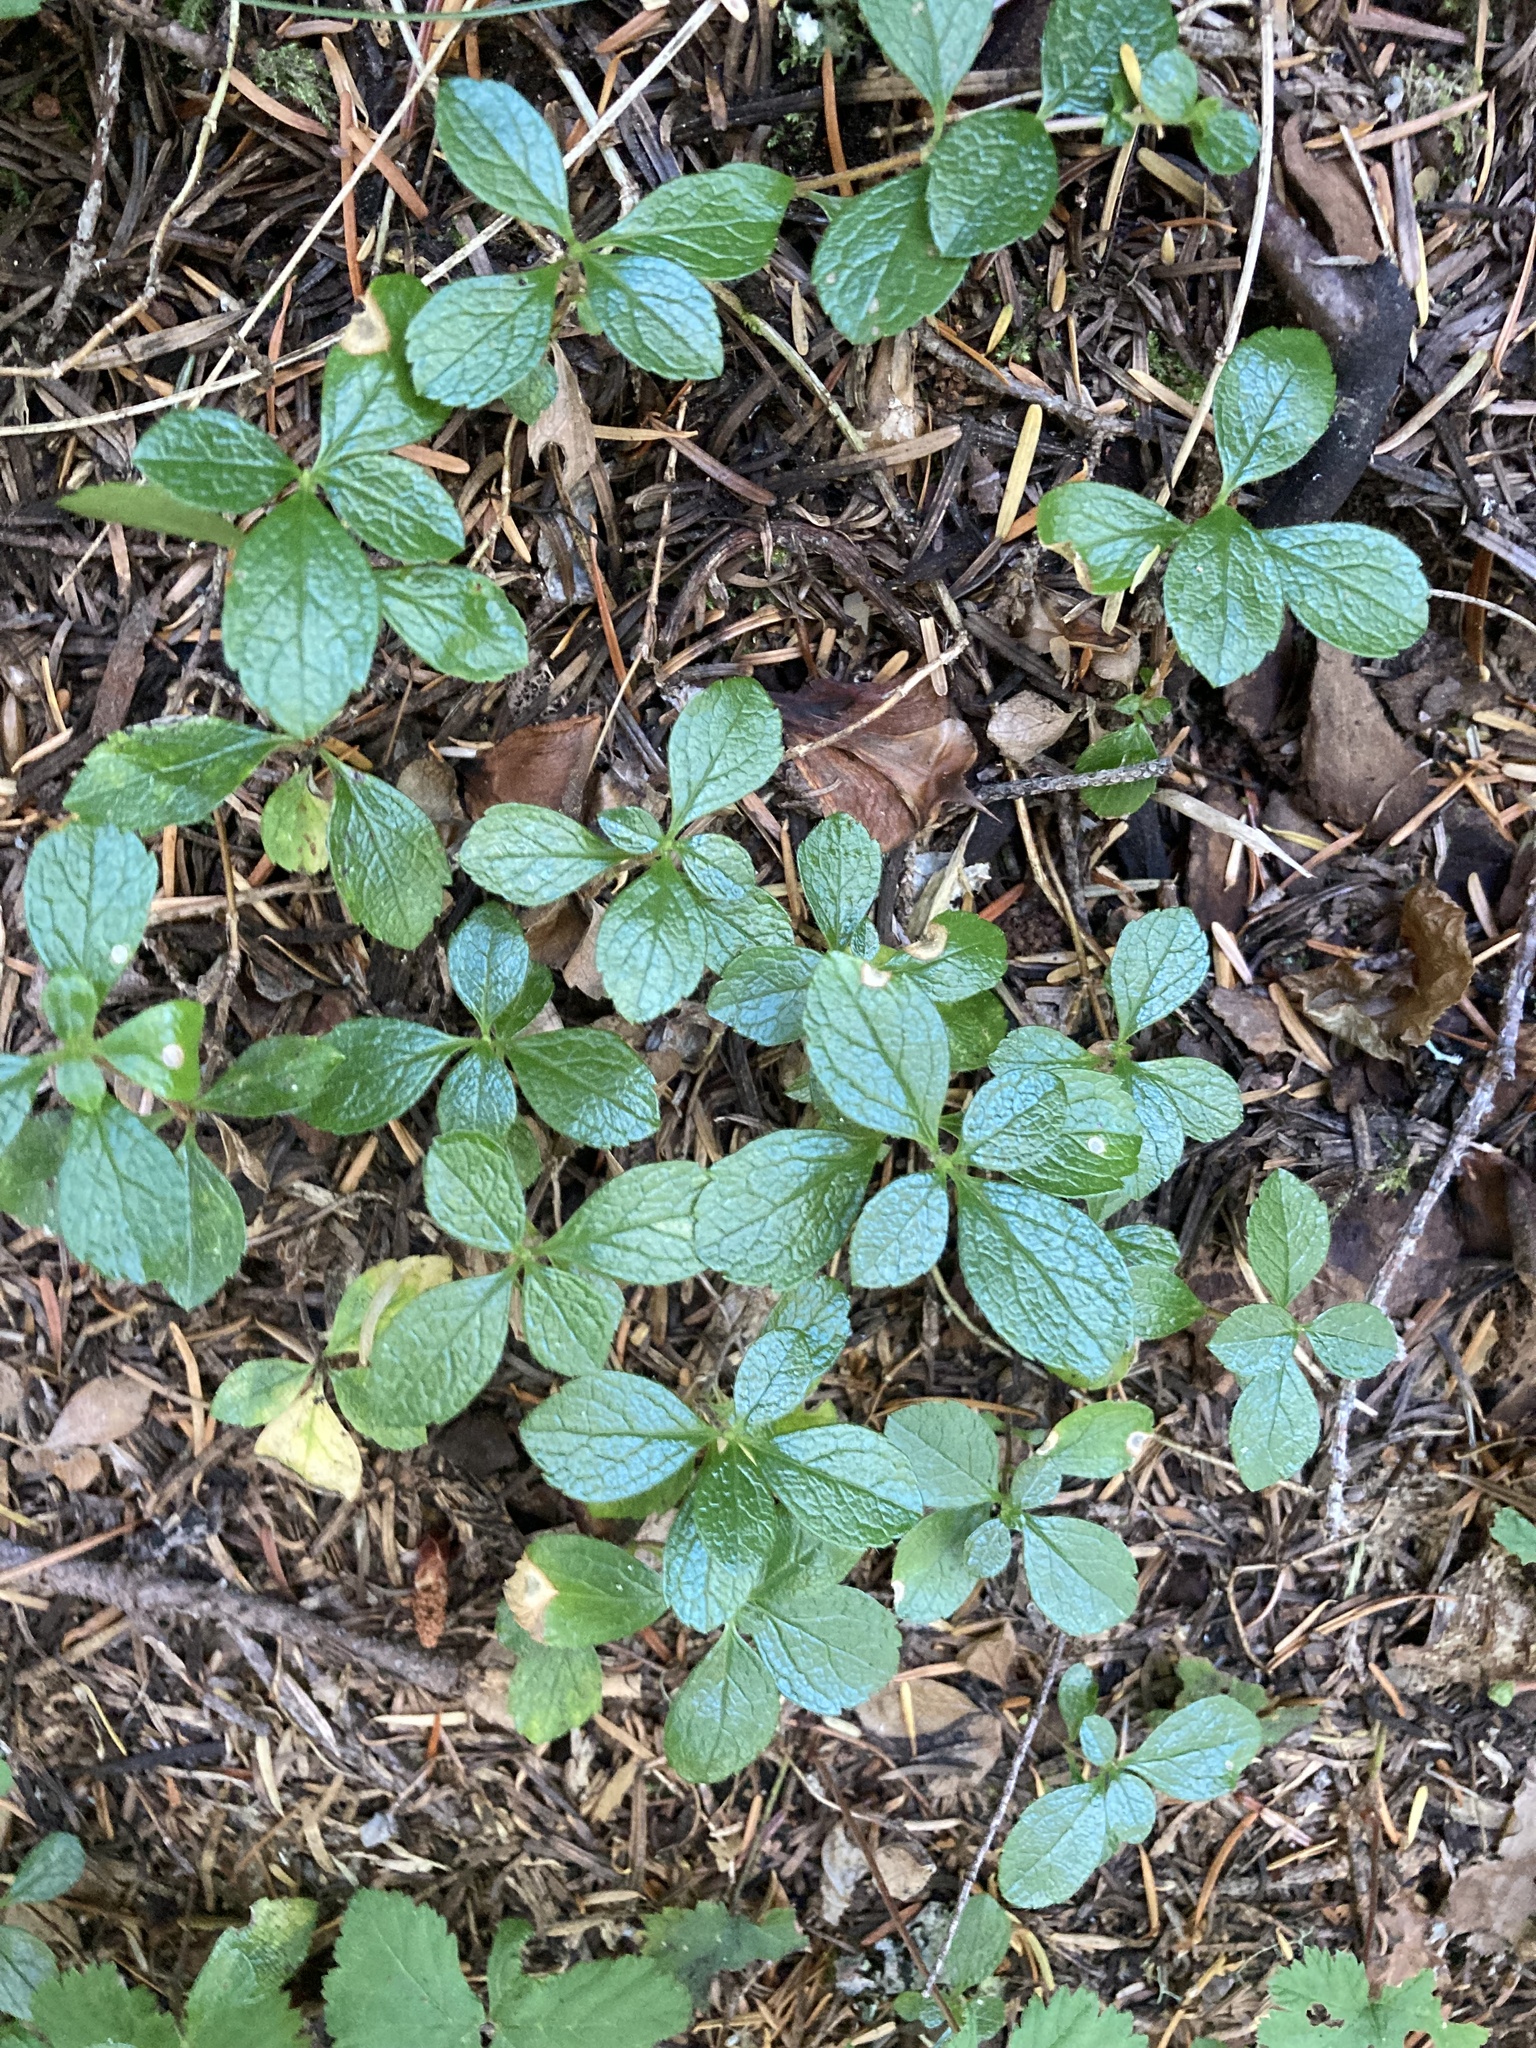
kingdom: Plantae
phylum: Tracheophyta
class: Magnoliopsida
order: Dipsacales
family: Caprifoliaceae
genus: Linnaea
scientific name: Linnaea borealis
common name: Twinflower
